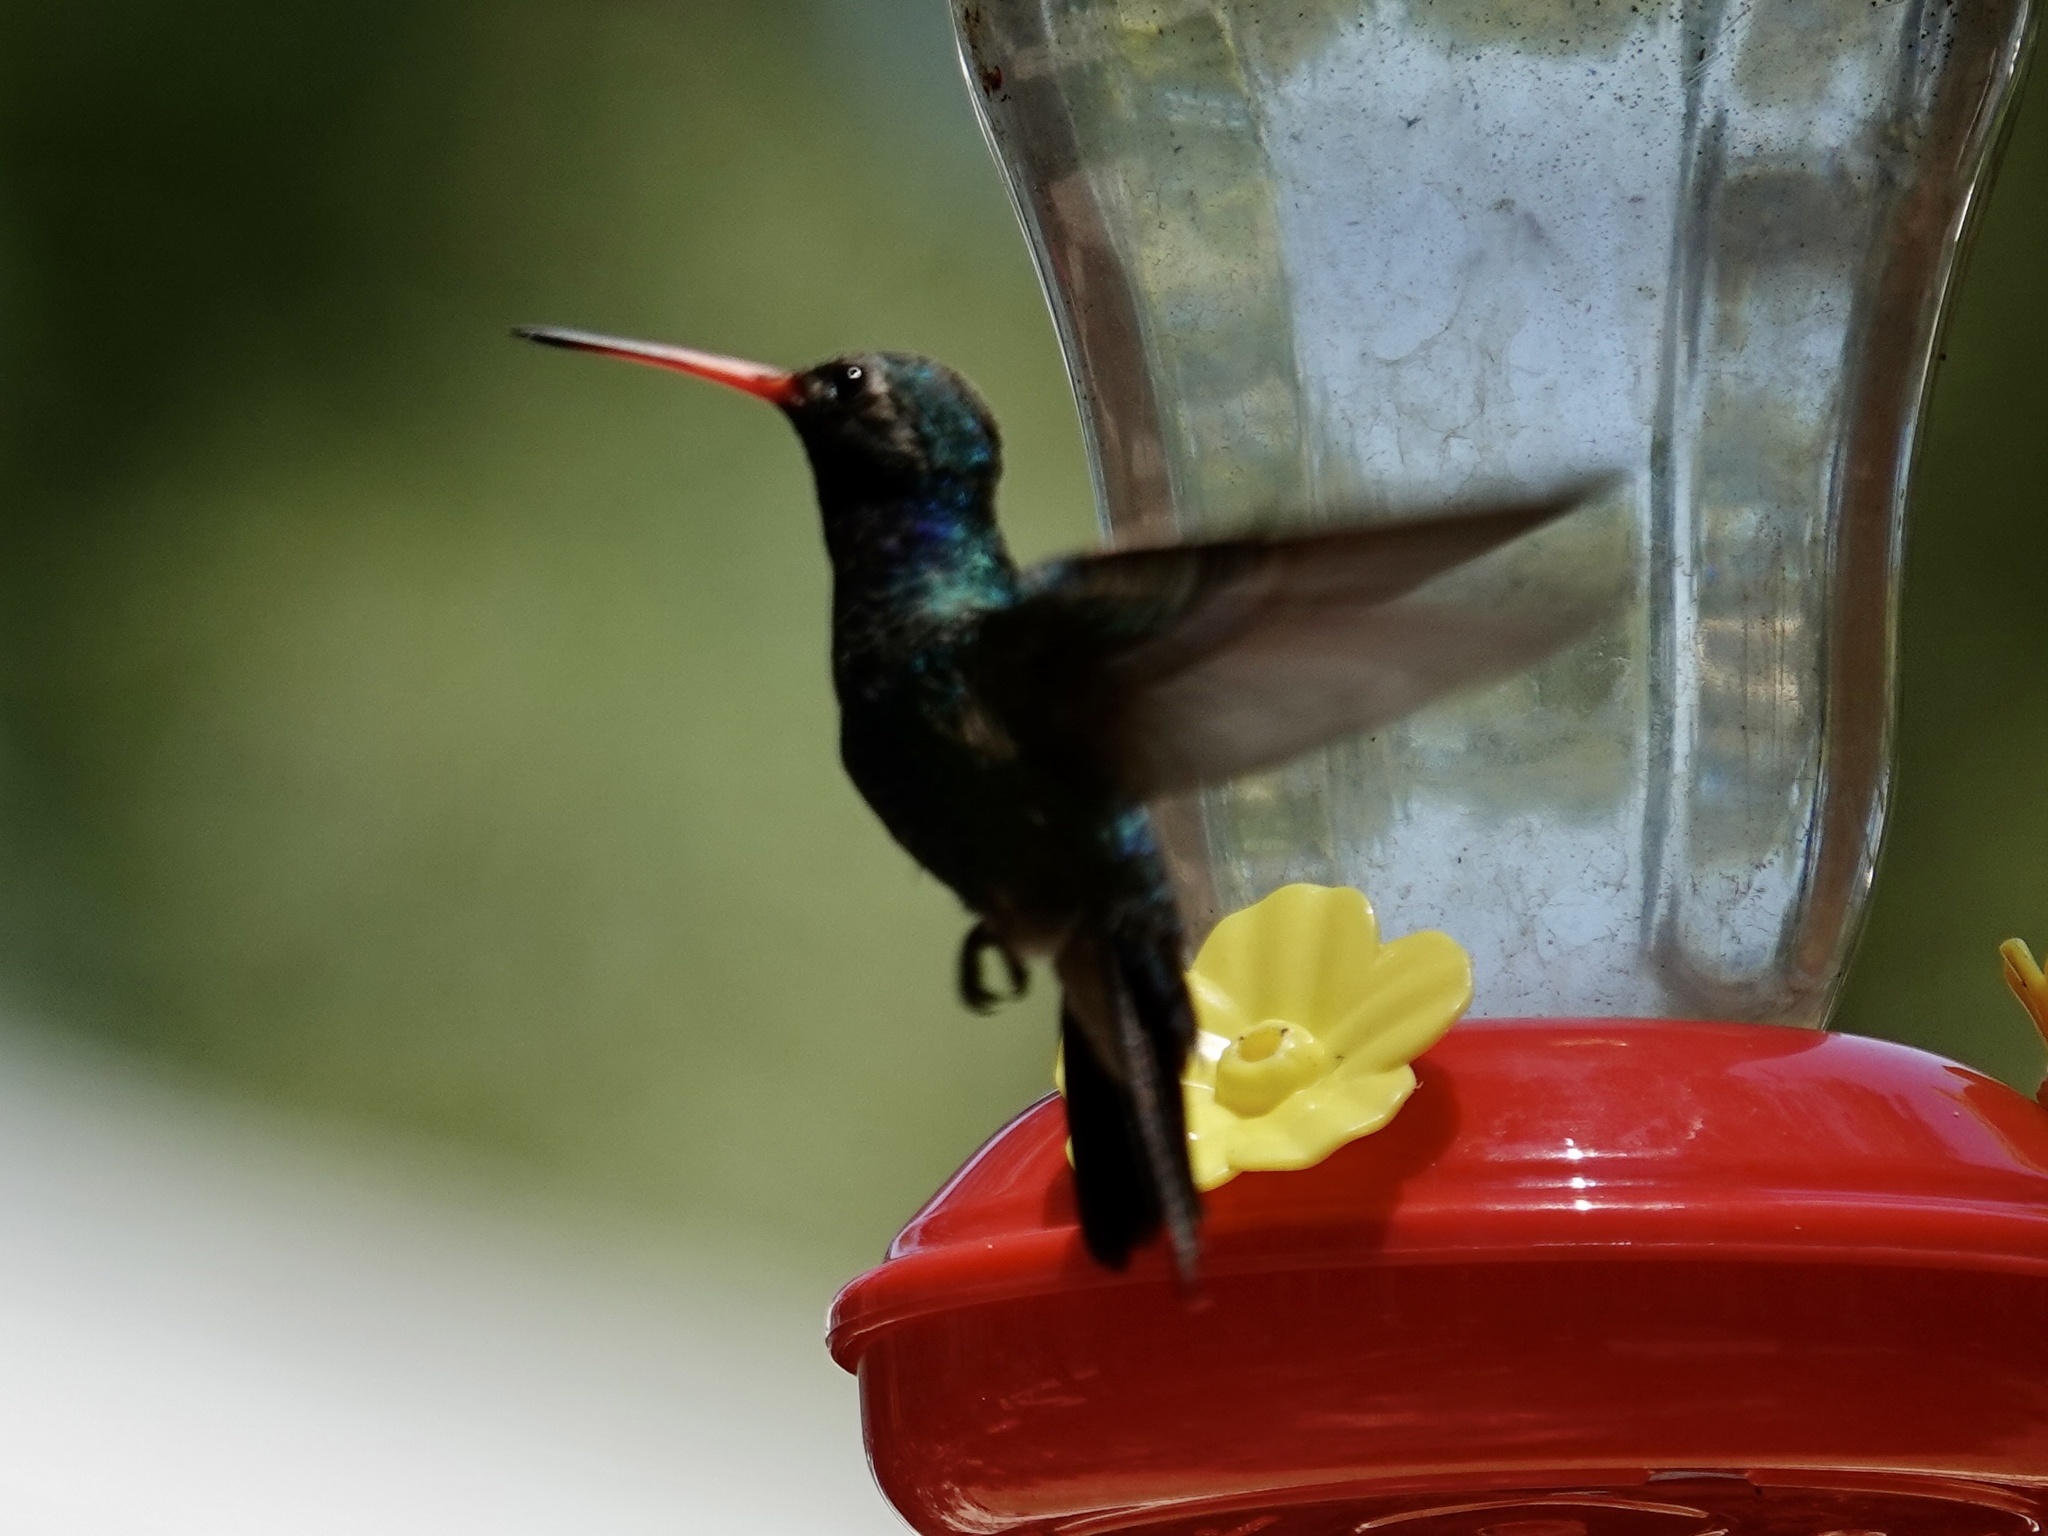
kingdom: Animalia
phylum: Chordata
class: Aves
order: Apodiformes
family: Trochilidae
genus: Cynanthus
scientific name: Cynanthus latirostris
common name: Broad-billed hummingbird
